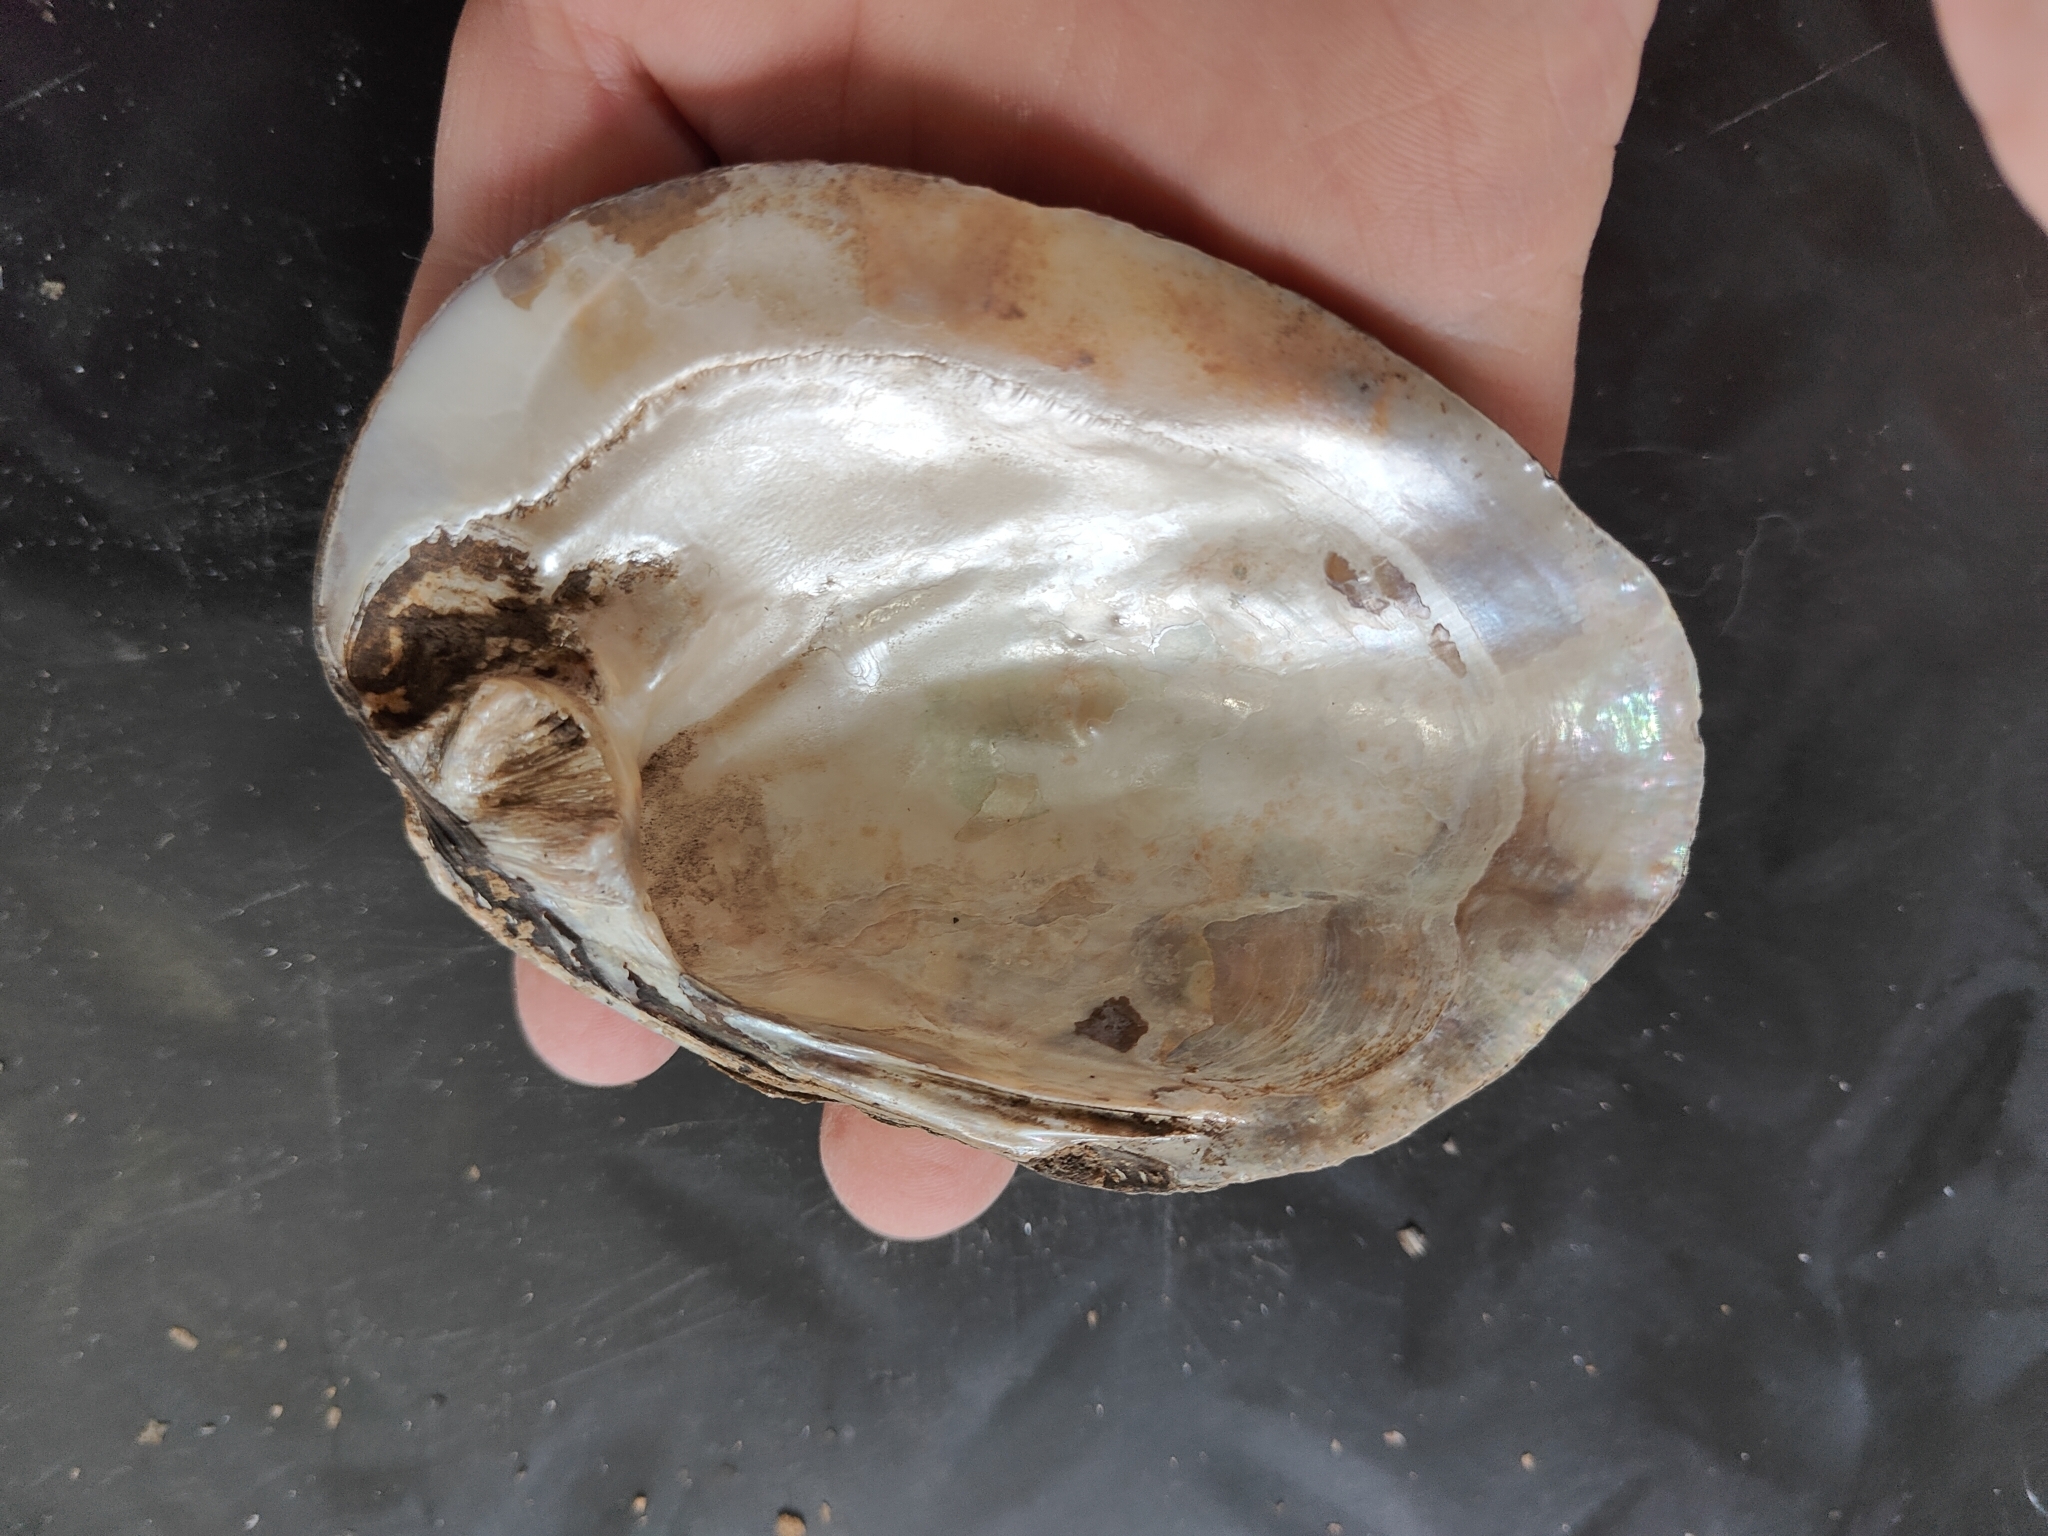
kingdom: Animalia
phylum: Mollusca
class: Bivalvia
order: Unionida
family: Unionidae
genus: Amblema
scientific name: Amblema plicata
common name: Threeridge
